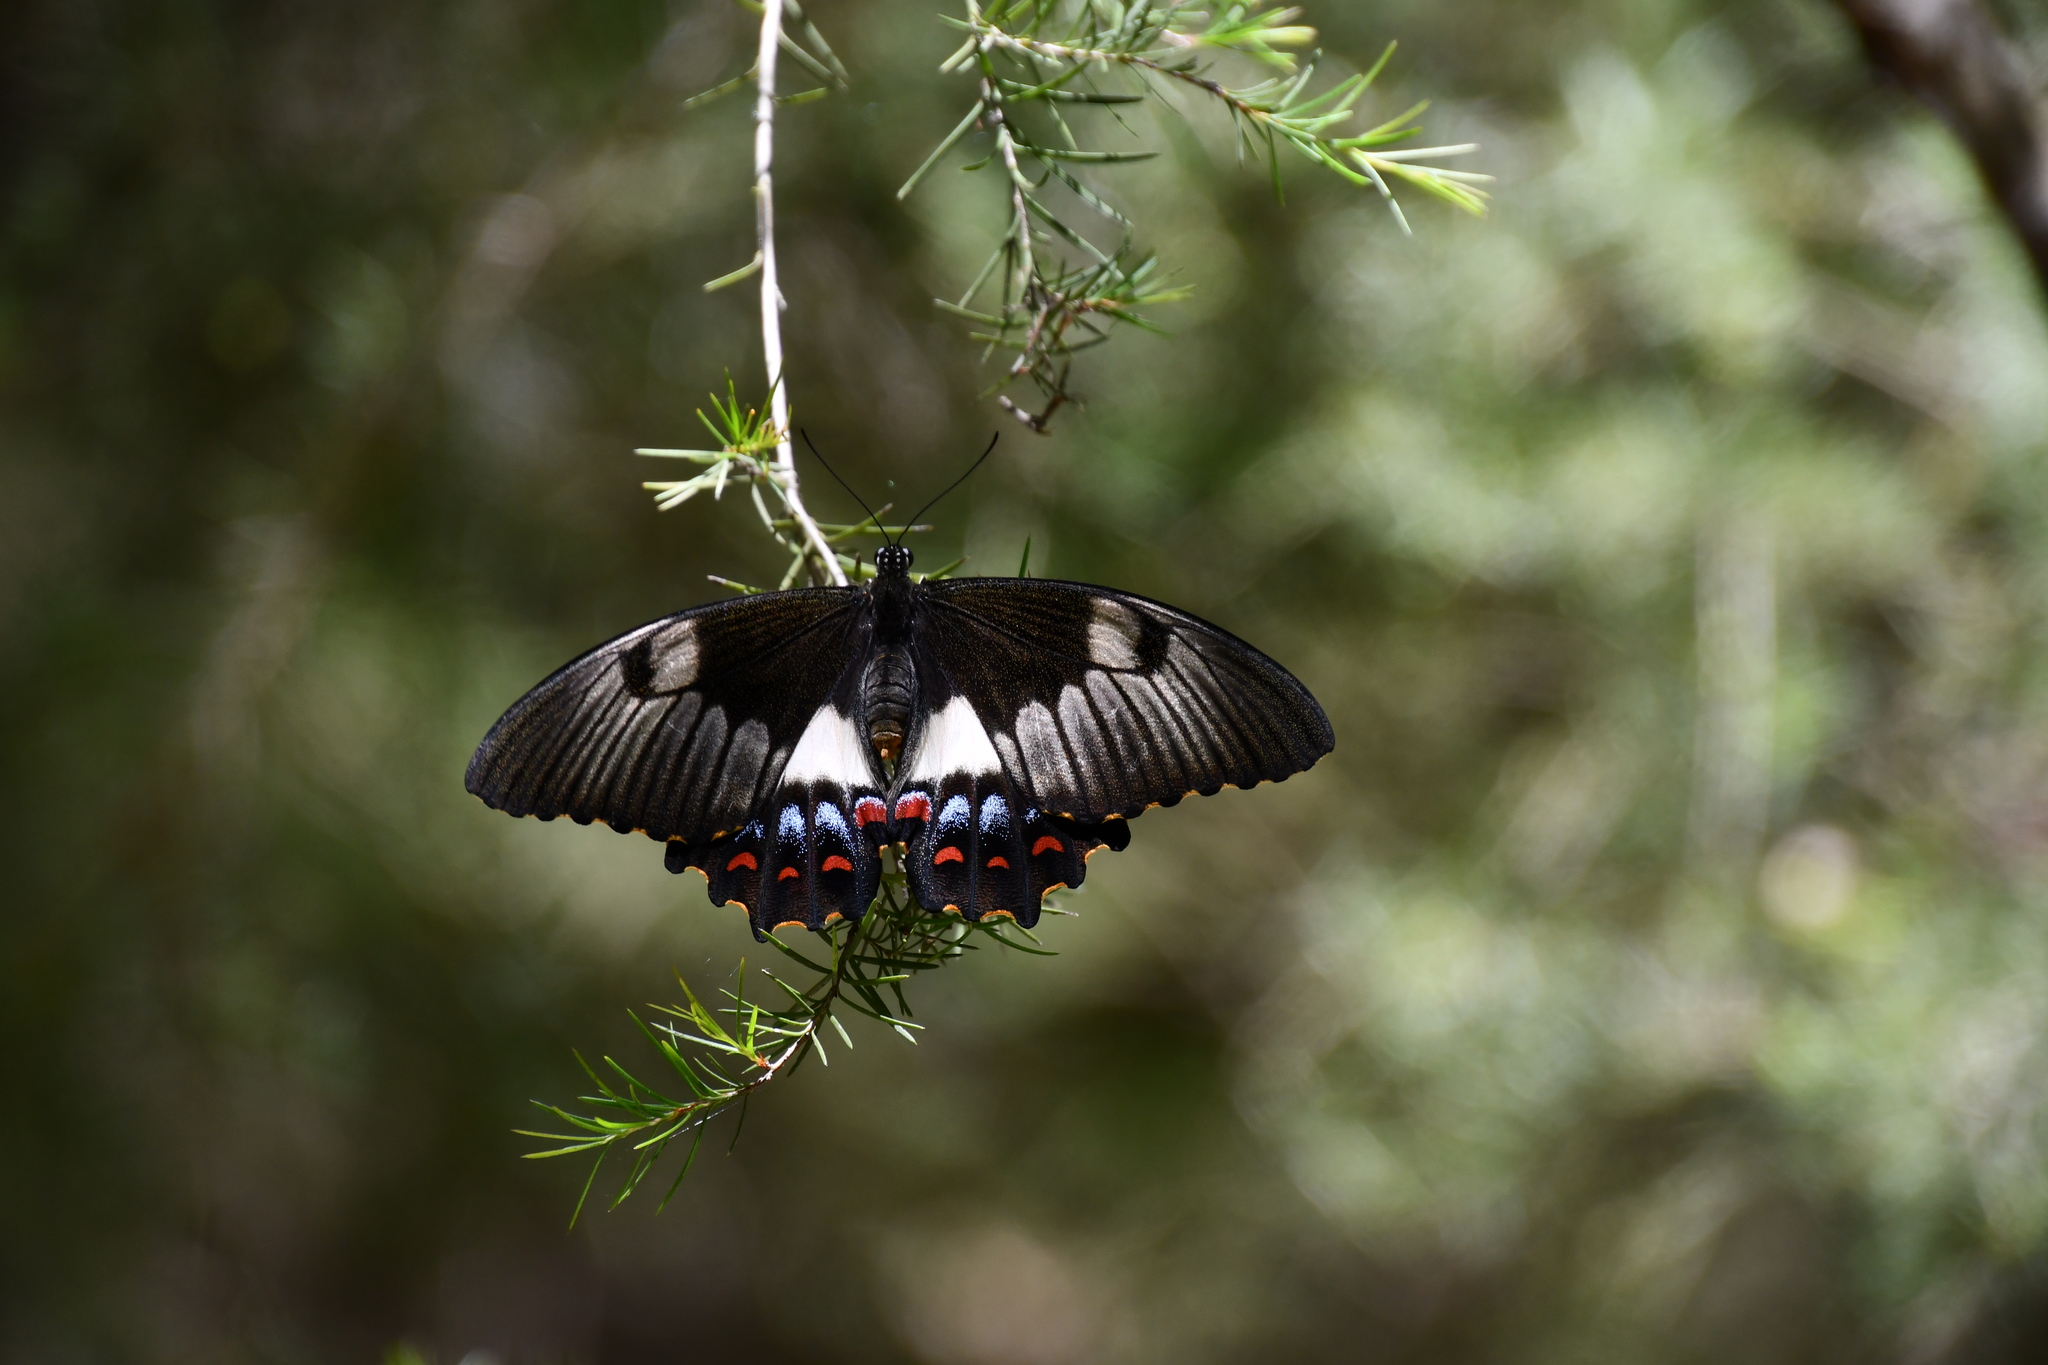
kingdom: Animalia
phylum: Arthropoda
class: Insecta
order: Lepidoptera
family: Papilionidae
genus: Papilio
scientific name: Papilio aegeus
